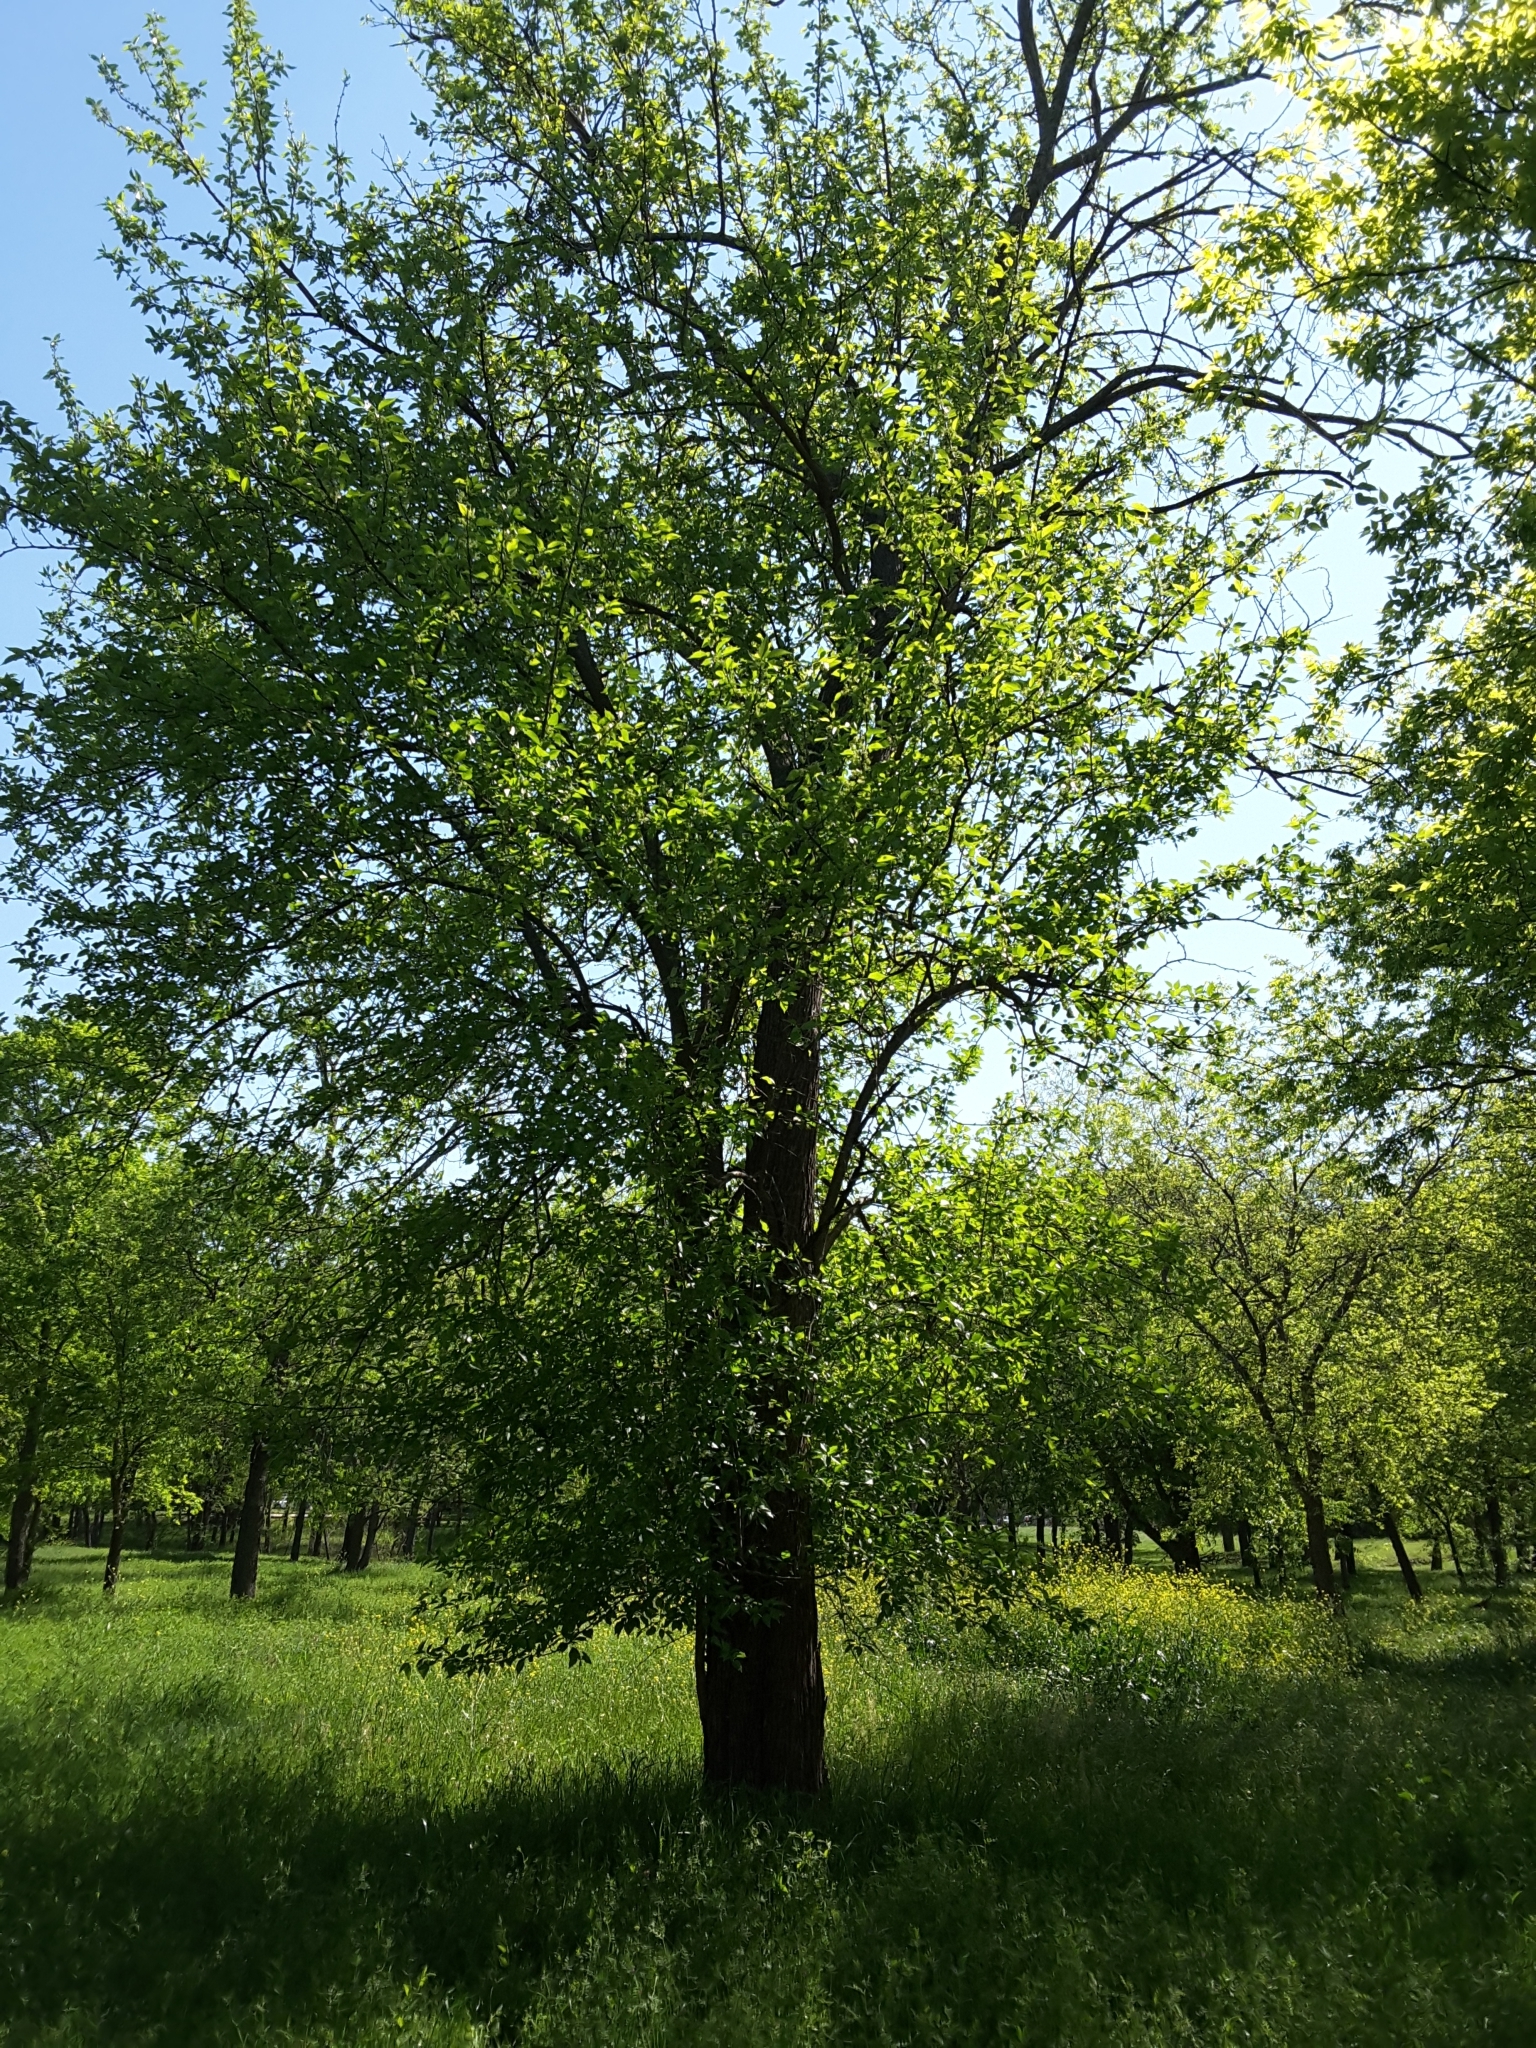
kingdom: Plantae
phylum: Tracheophyta
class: Magnoliopsida
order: Rosales
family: Moraceae
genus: Maclura
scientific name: Maclura pomifera
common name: Osage-orange
